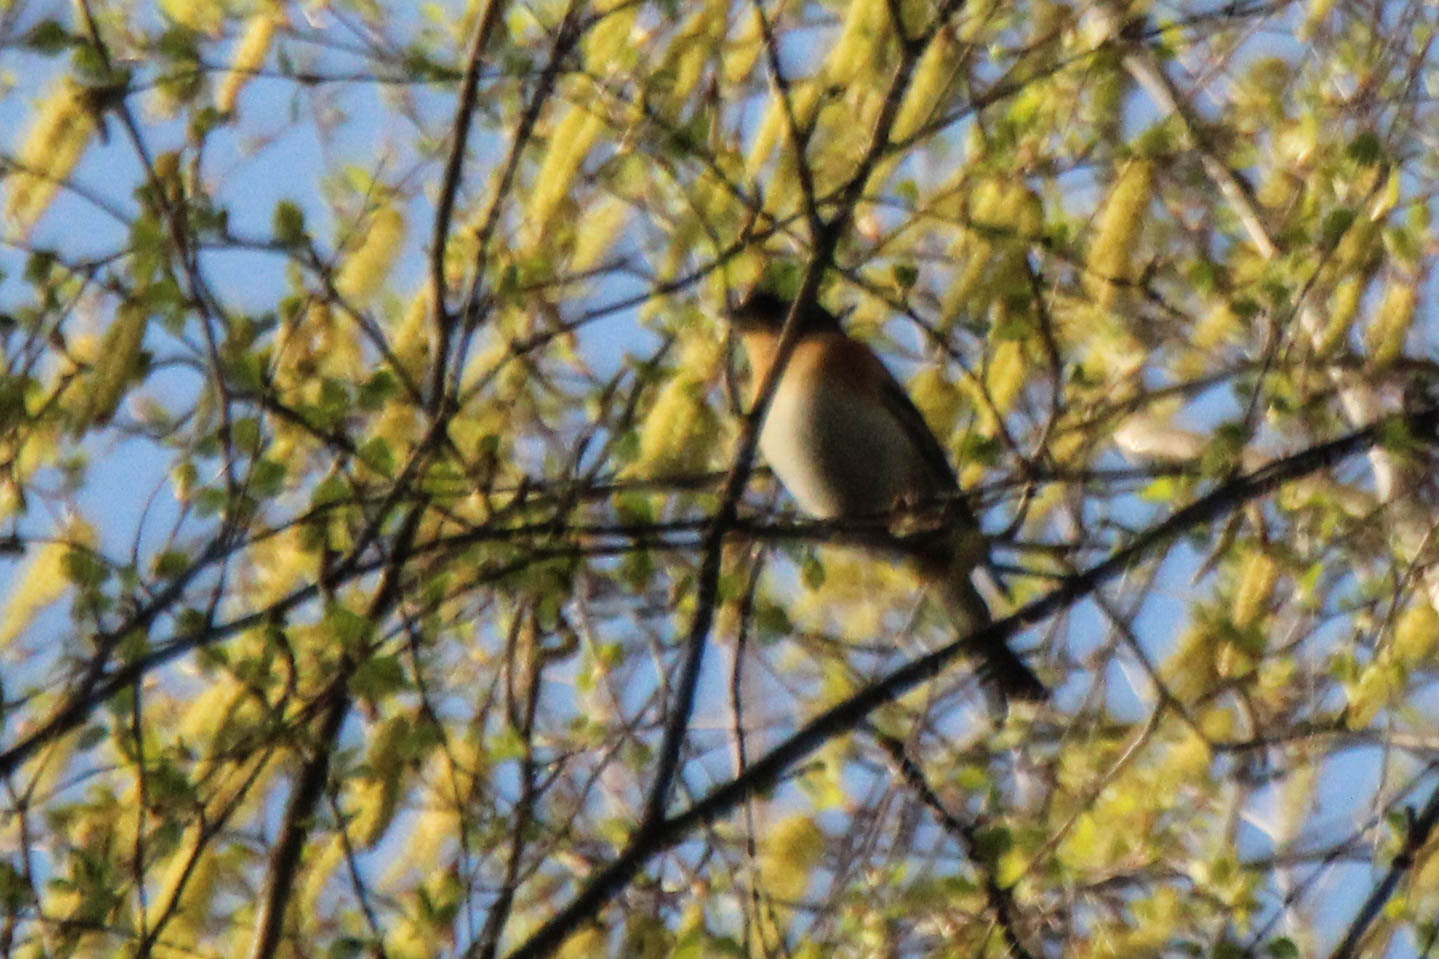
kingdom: Animalia
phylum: Chordata
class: Aves
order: Passeriformes
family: Fringillidae
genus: Fringilla
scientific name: Fringilla montifringilla
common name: Brambling
